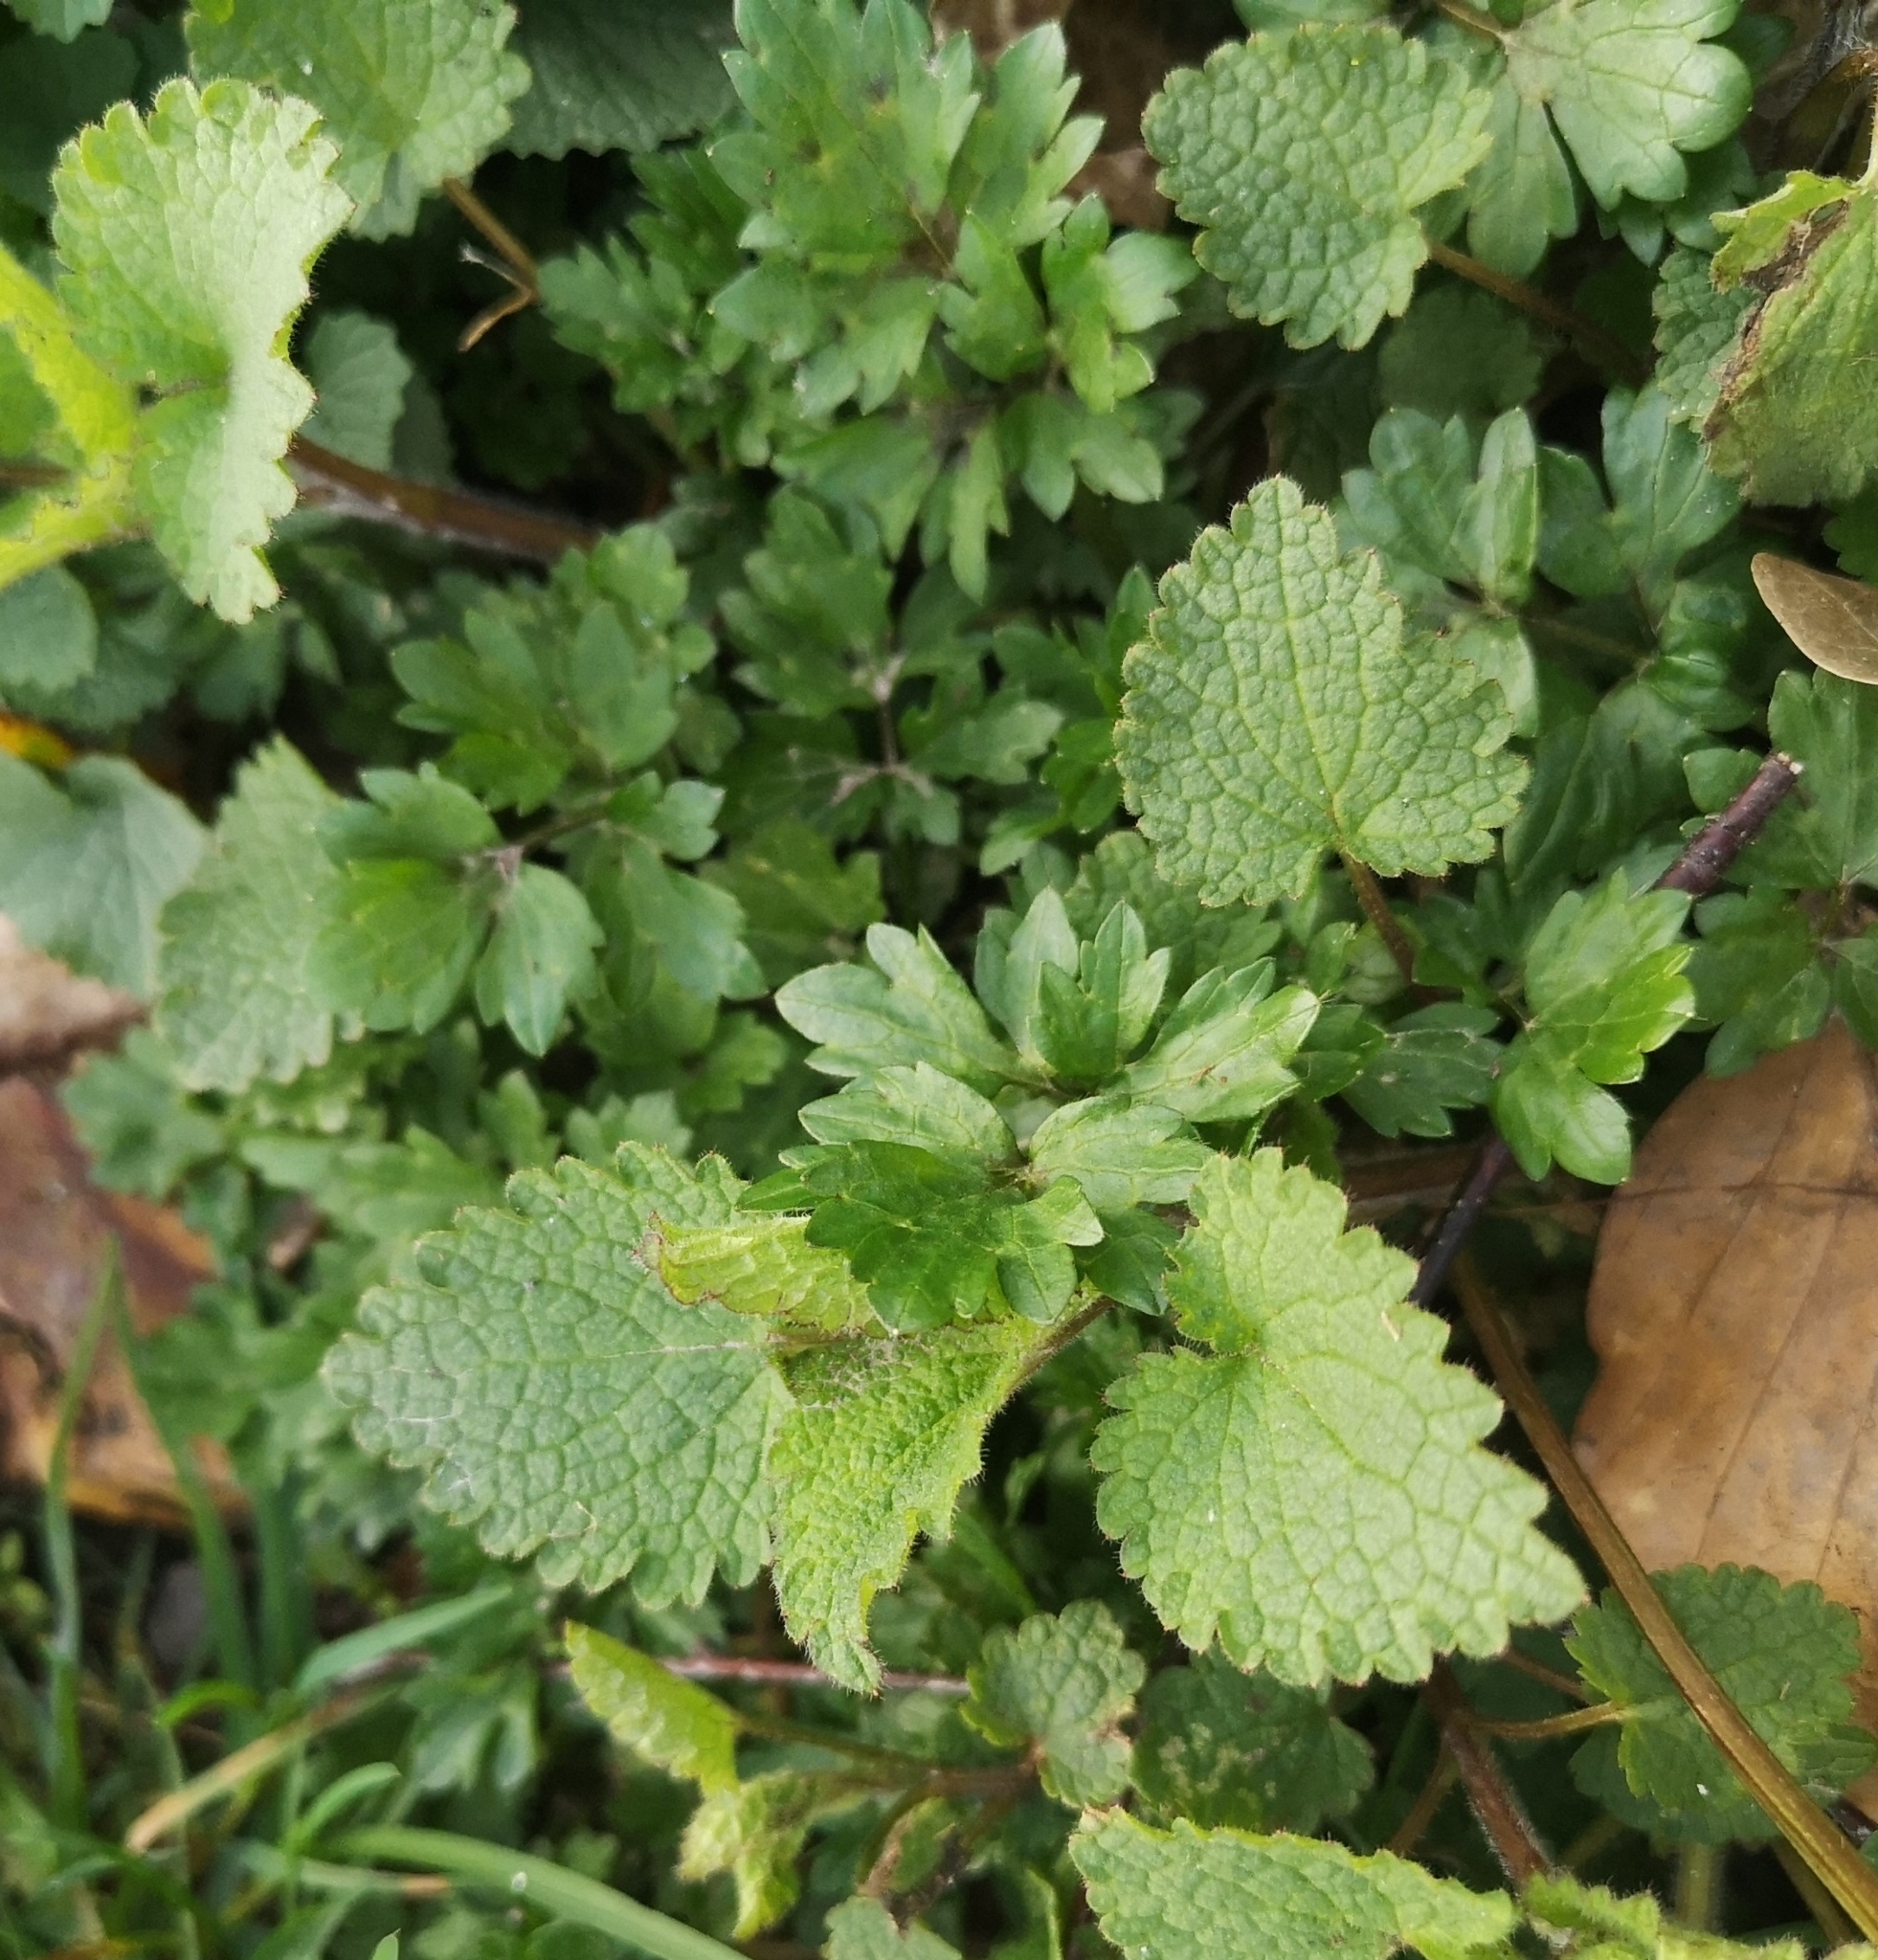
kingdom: Plantae
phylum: Tracheophyta
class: Magnoliopsida
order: Lamiales
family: Lamiaceae
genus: Lamium
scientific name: Lamium maculatum
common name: Spotted dead-nettle
